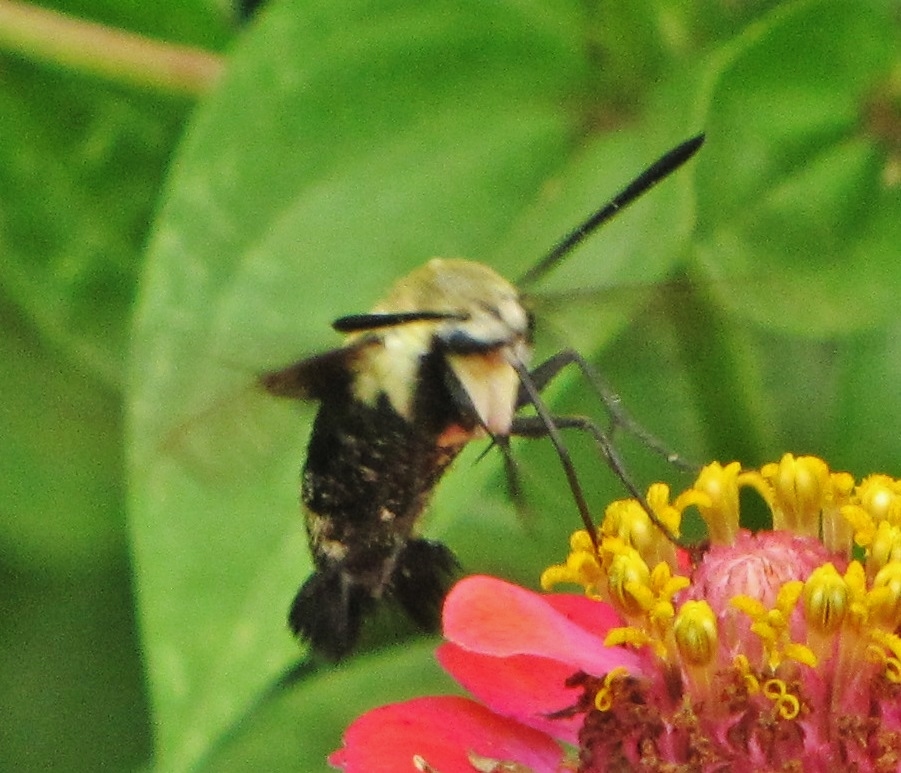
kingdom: Animalia
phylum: Arthropoda
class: Insecta
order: Lepidoptera
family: Sphingidae
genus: Hemaris
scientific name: Hemaris diffinis
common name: Bumblebee moth
